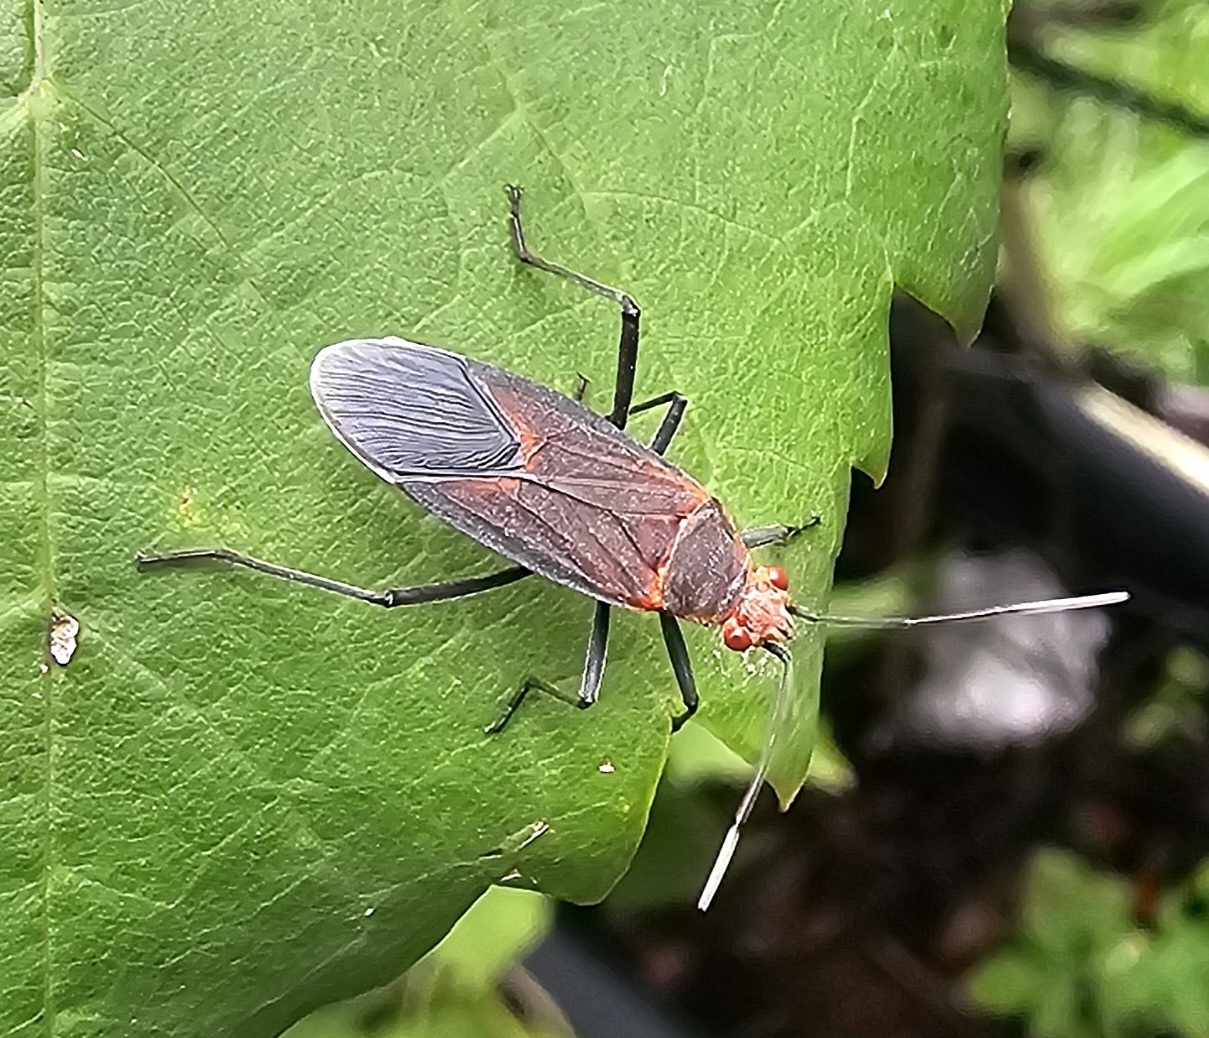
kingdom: Animalia
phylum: Arthropoda
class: Insecta
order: Hemiptera
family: Rhopalidae
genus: Leptocoris
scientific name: Leptocoris mitellatus
